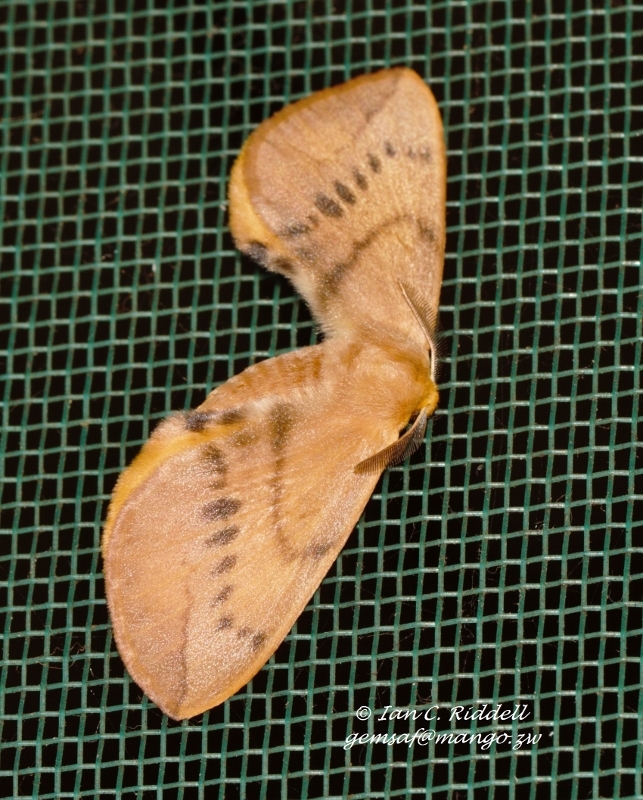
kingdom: Animalia
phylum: Arthropoda
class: Insecta
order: Lepidoptera
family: Eupterotidae
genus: Stenoglene
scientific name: Stenoglene obtusus
